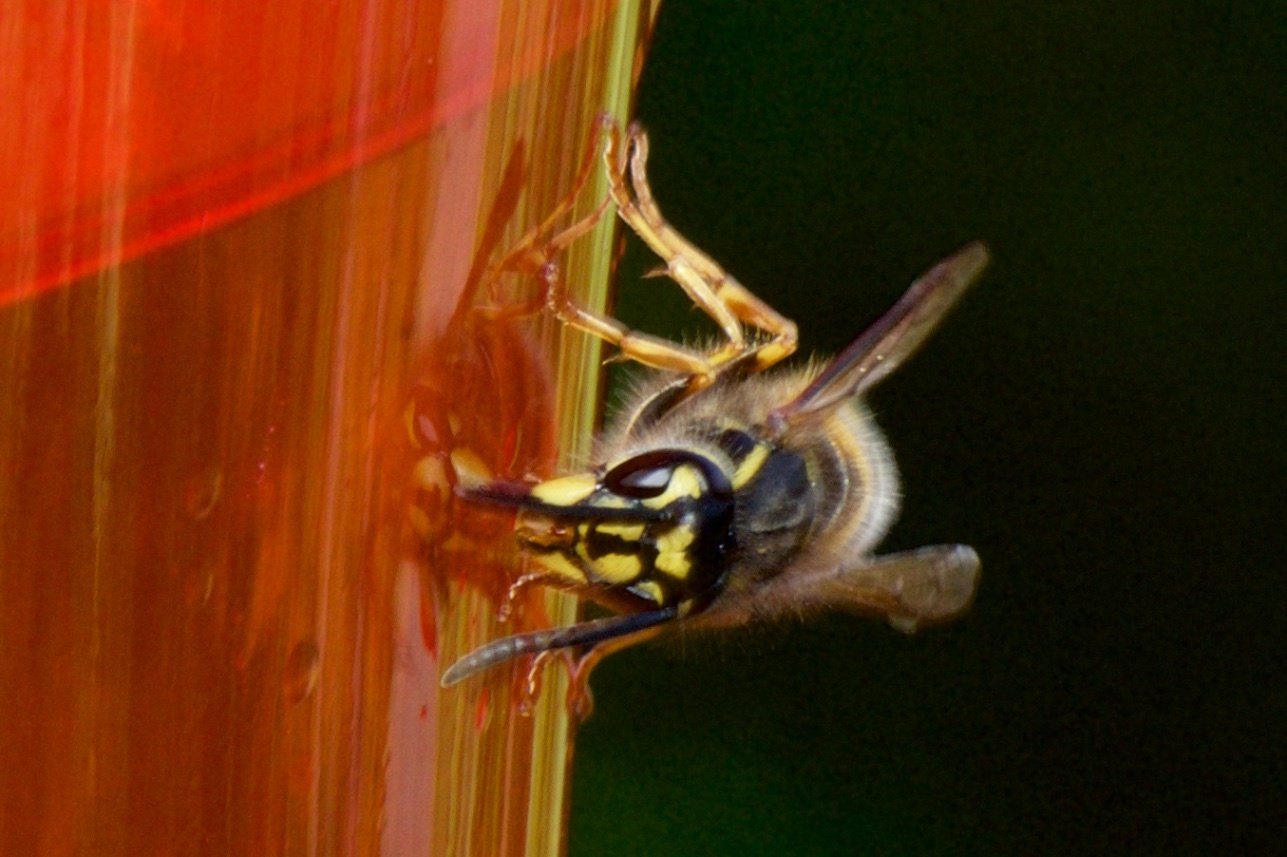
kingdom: Animalia
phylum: Arthropoda
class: Insecta
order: Hymenoptera
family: Vespidae
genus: Vespula
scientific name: Vespula vulgaris
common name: Common wasp
